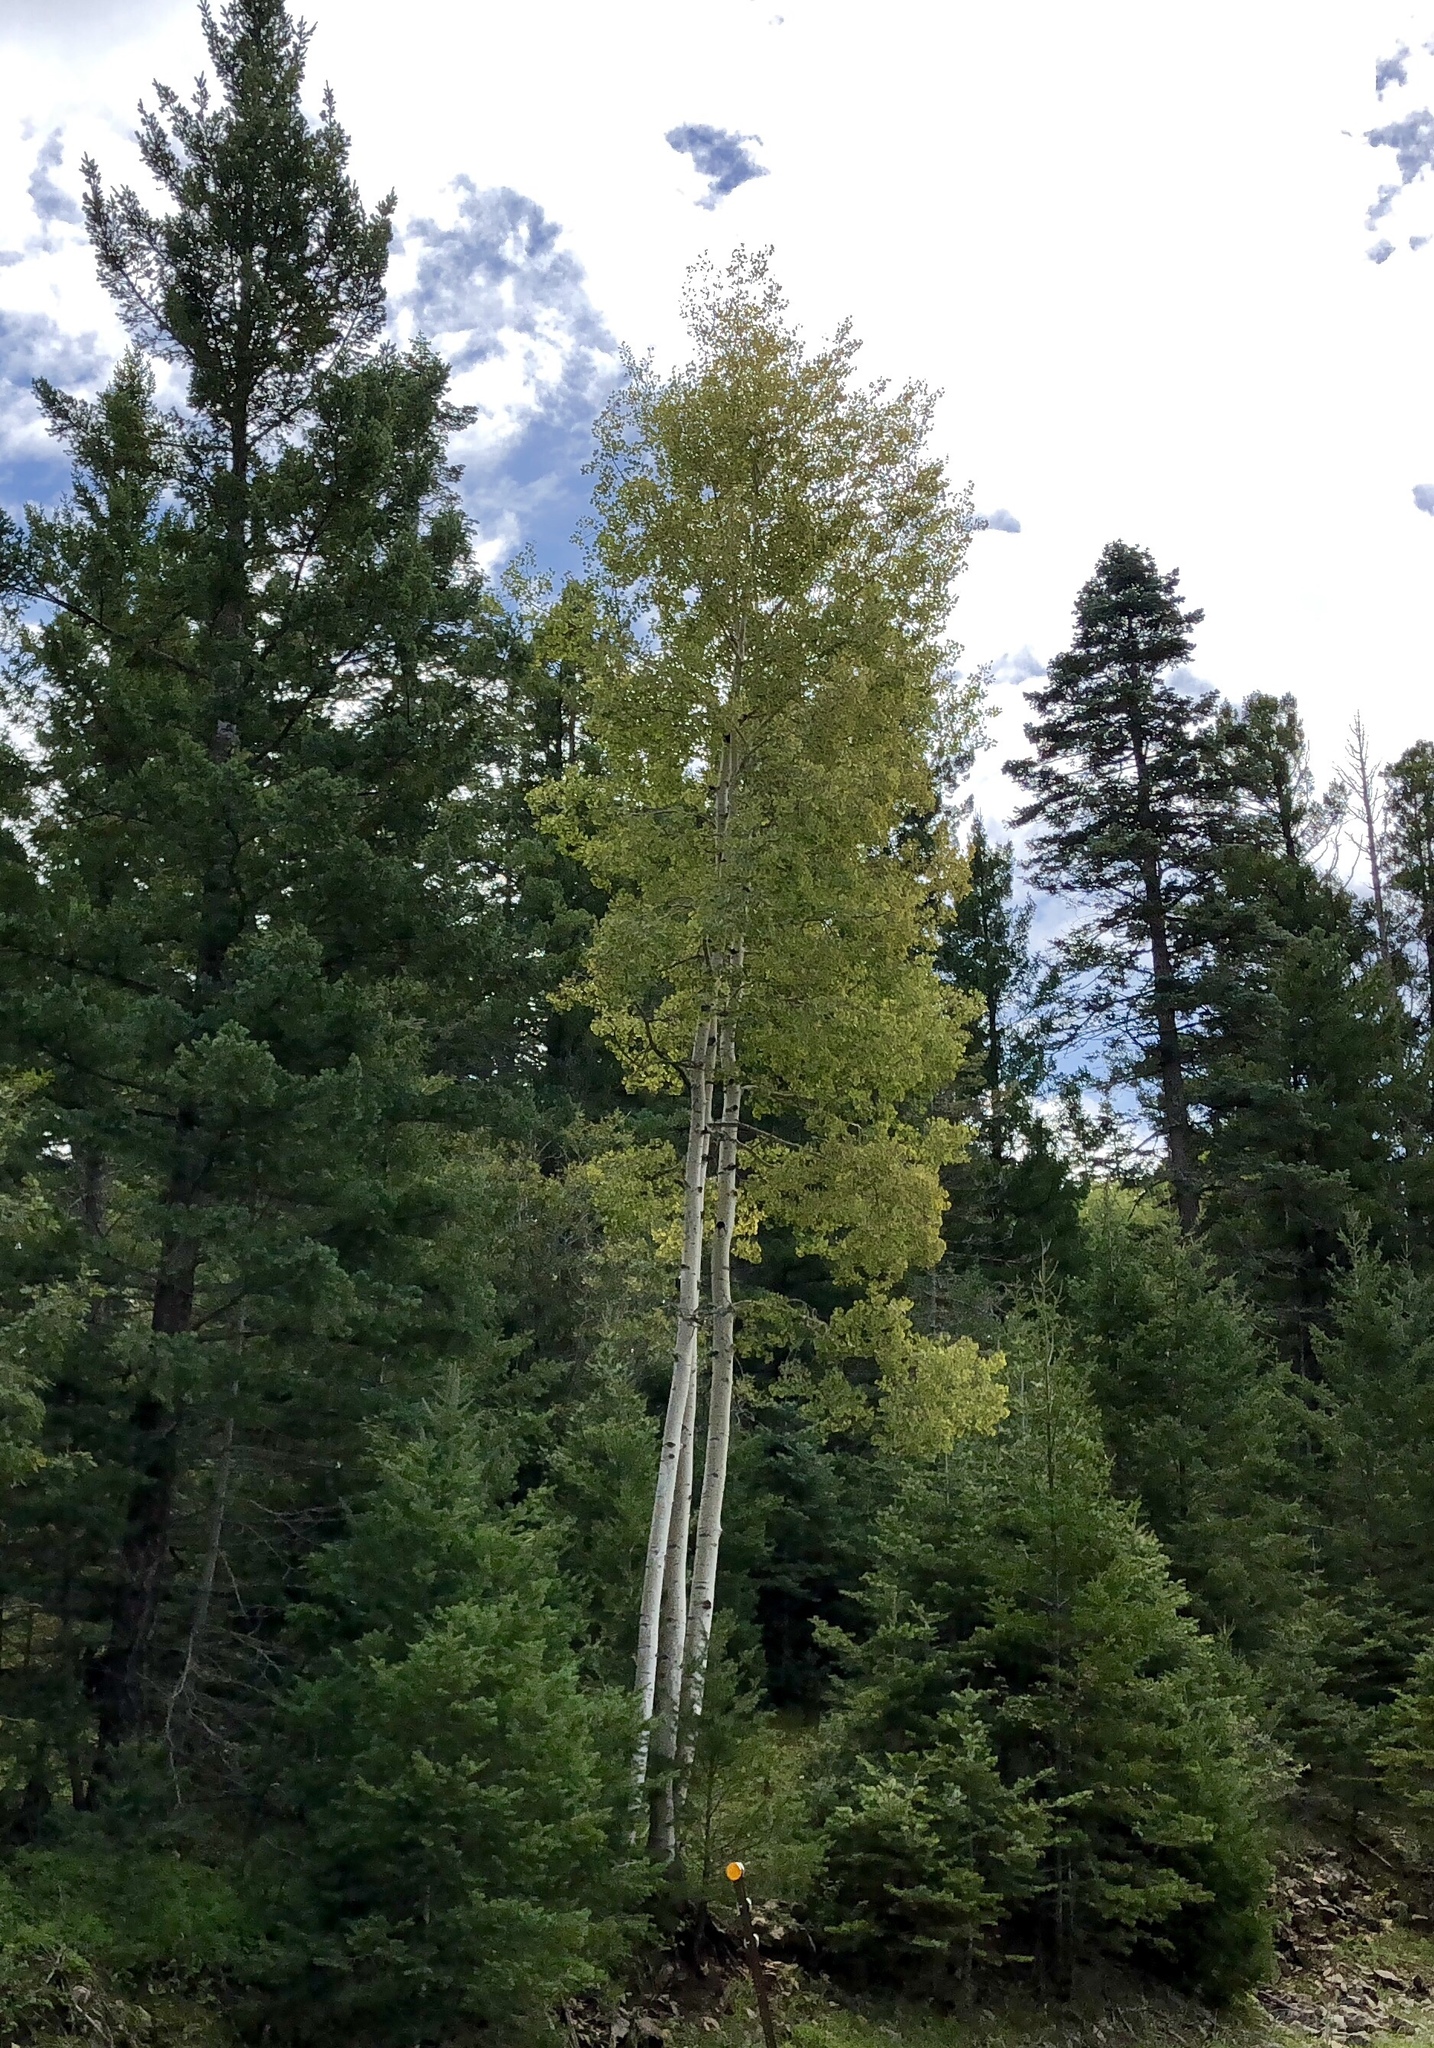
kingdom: Plantae
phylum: Tracheophyta
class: Magnoliopsida
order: Malpighiales
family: Salicaceae
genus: Populus
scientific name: Populus tremuloides
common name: Quaking aspen
